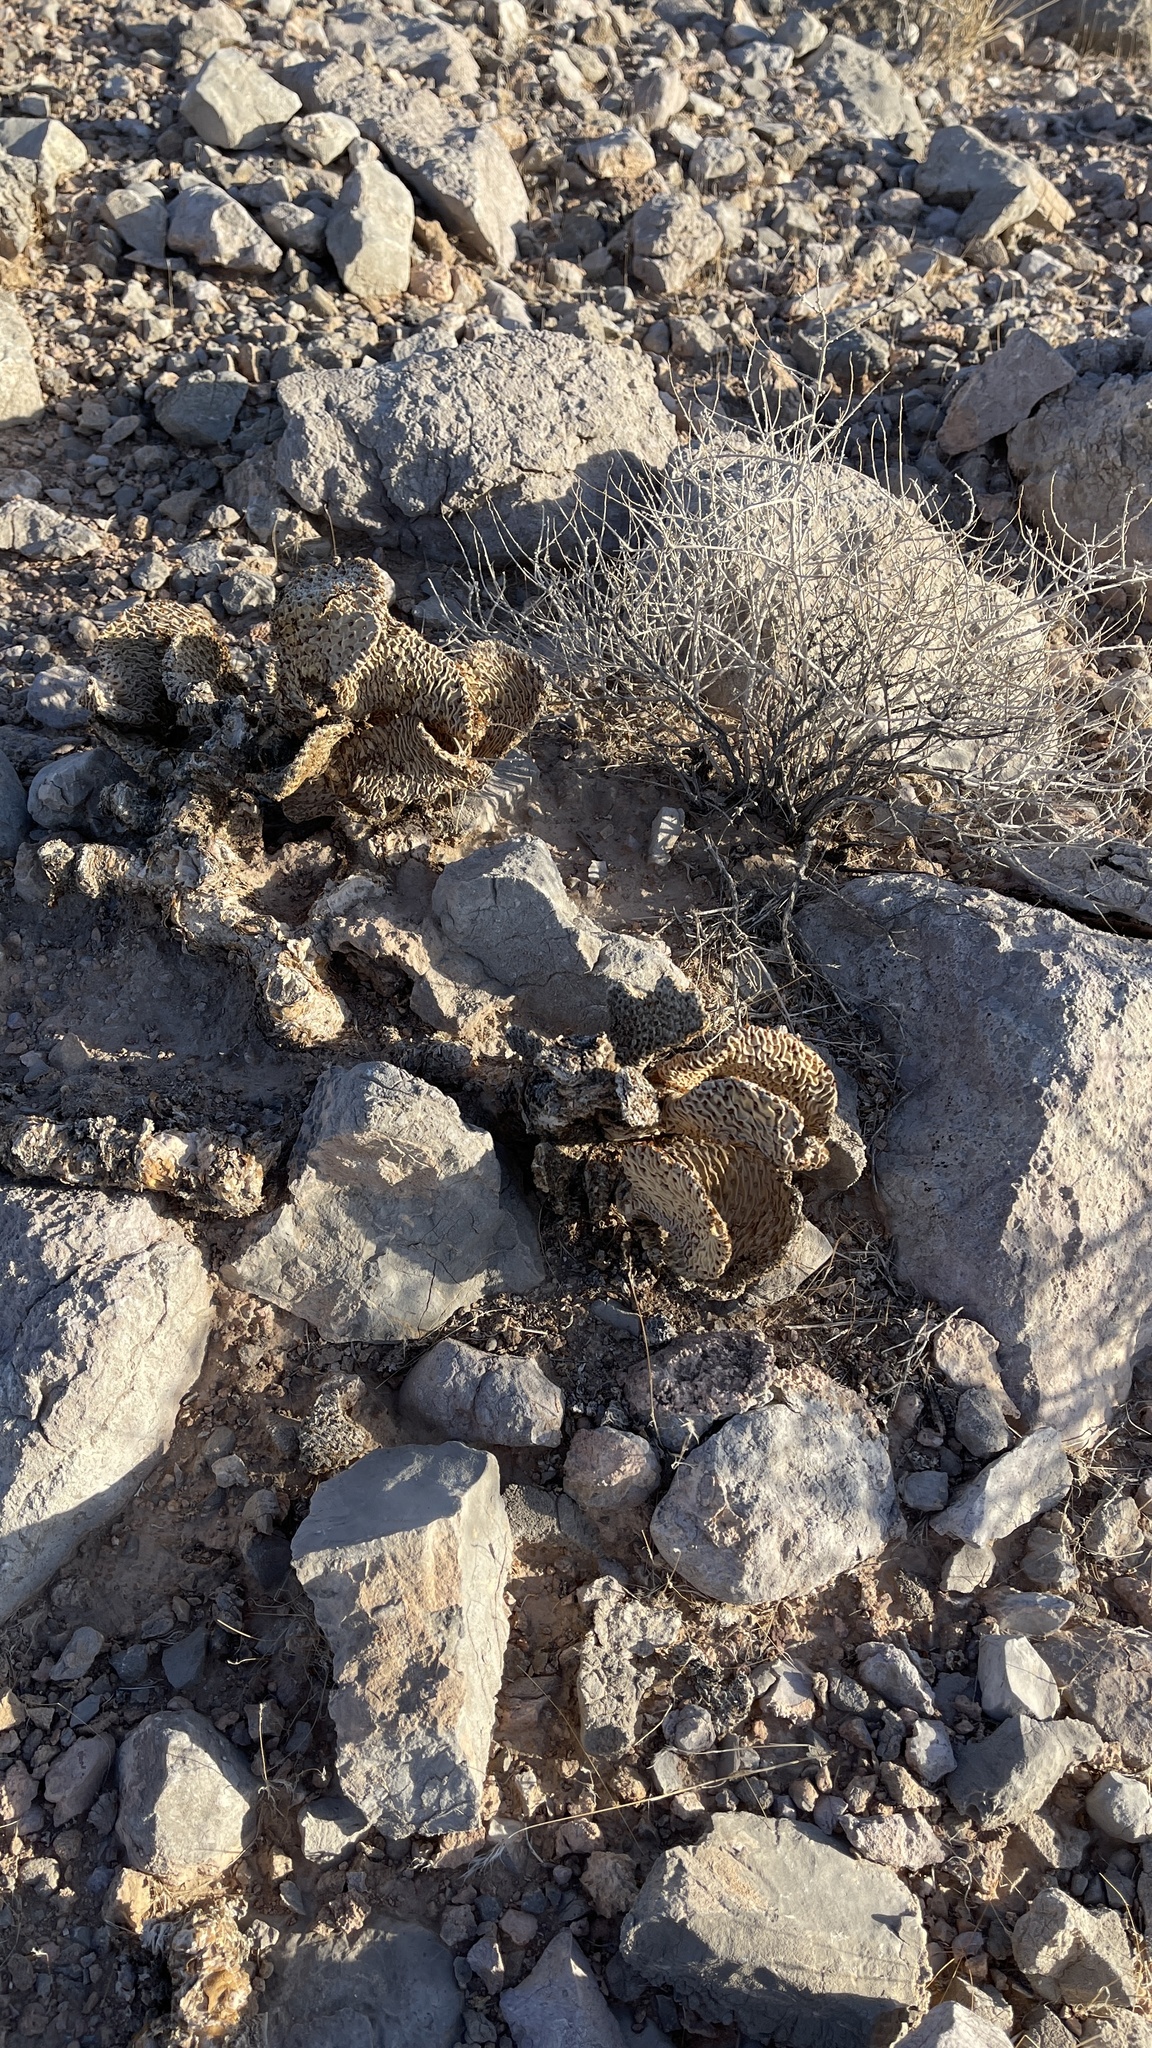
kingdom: Plantae
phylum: Tracheophyta
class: Magnoliopsida
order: Caryophyllales
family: Cactaceae
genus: Opuntia
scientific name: Opuntia basilaris
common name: Beavertail prickly-pear
